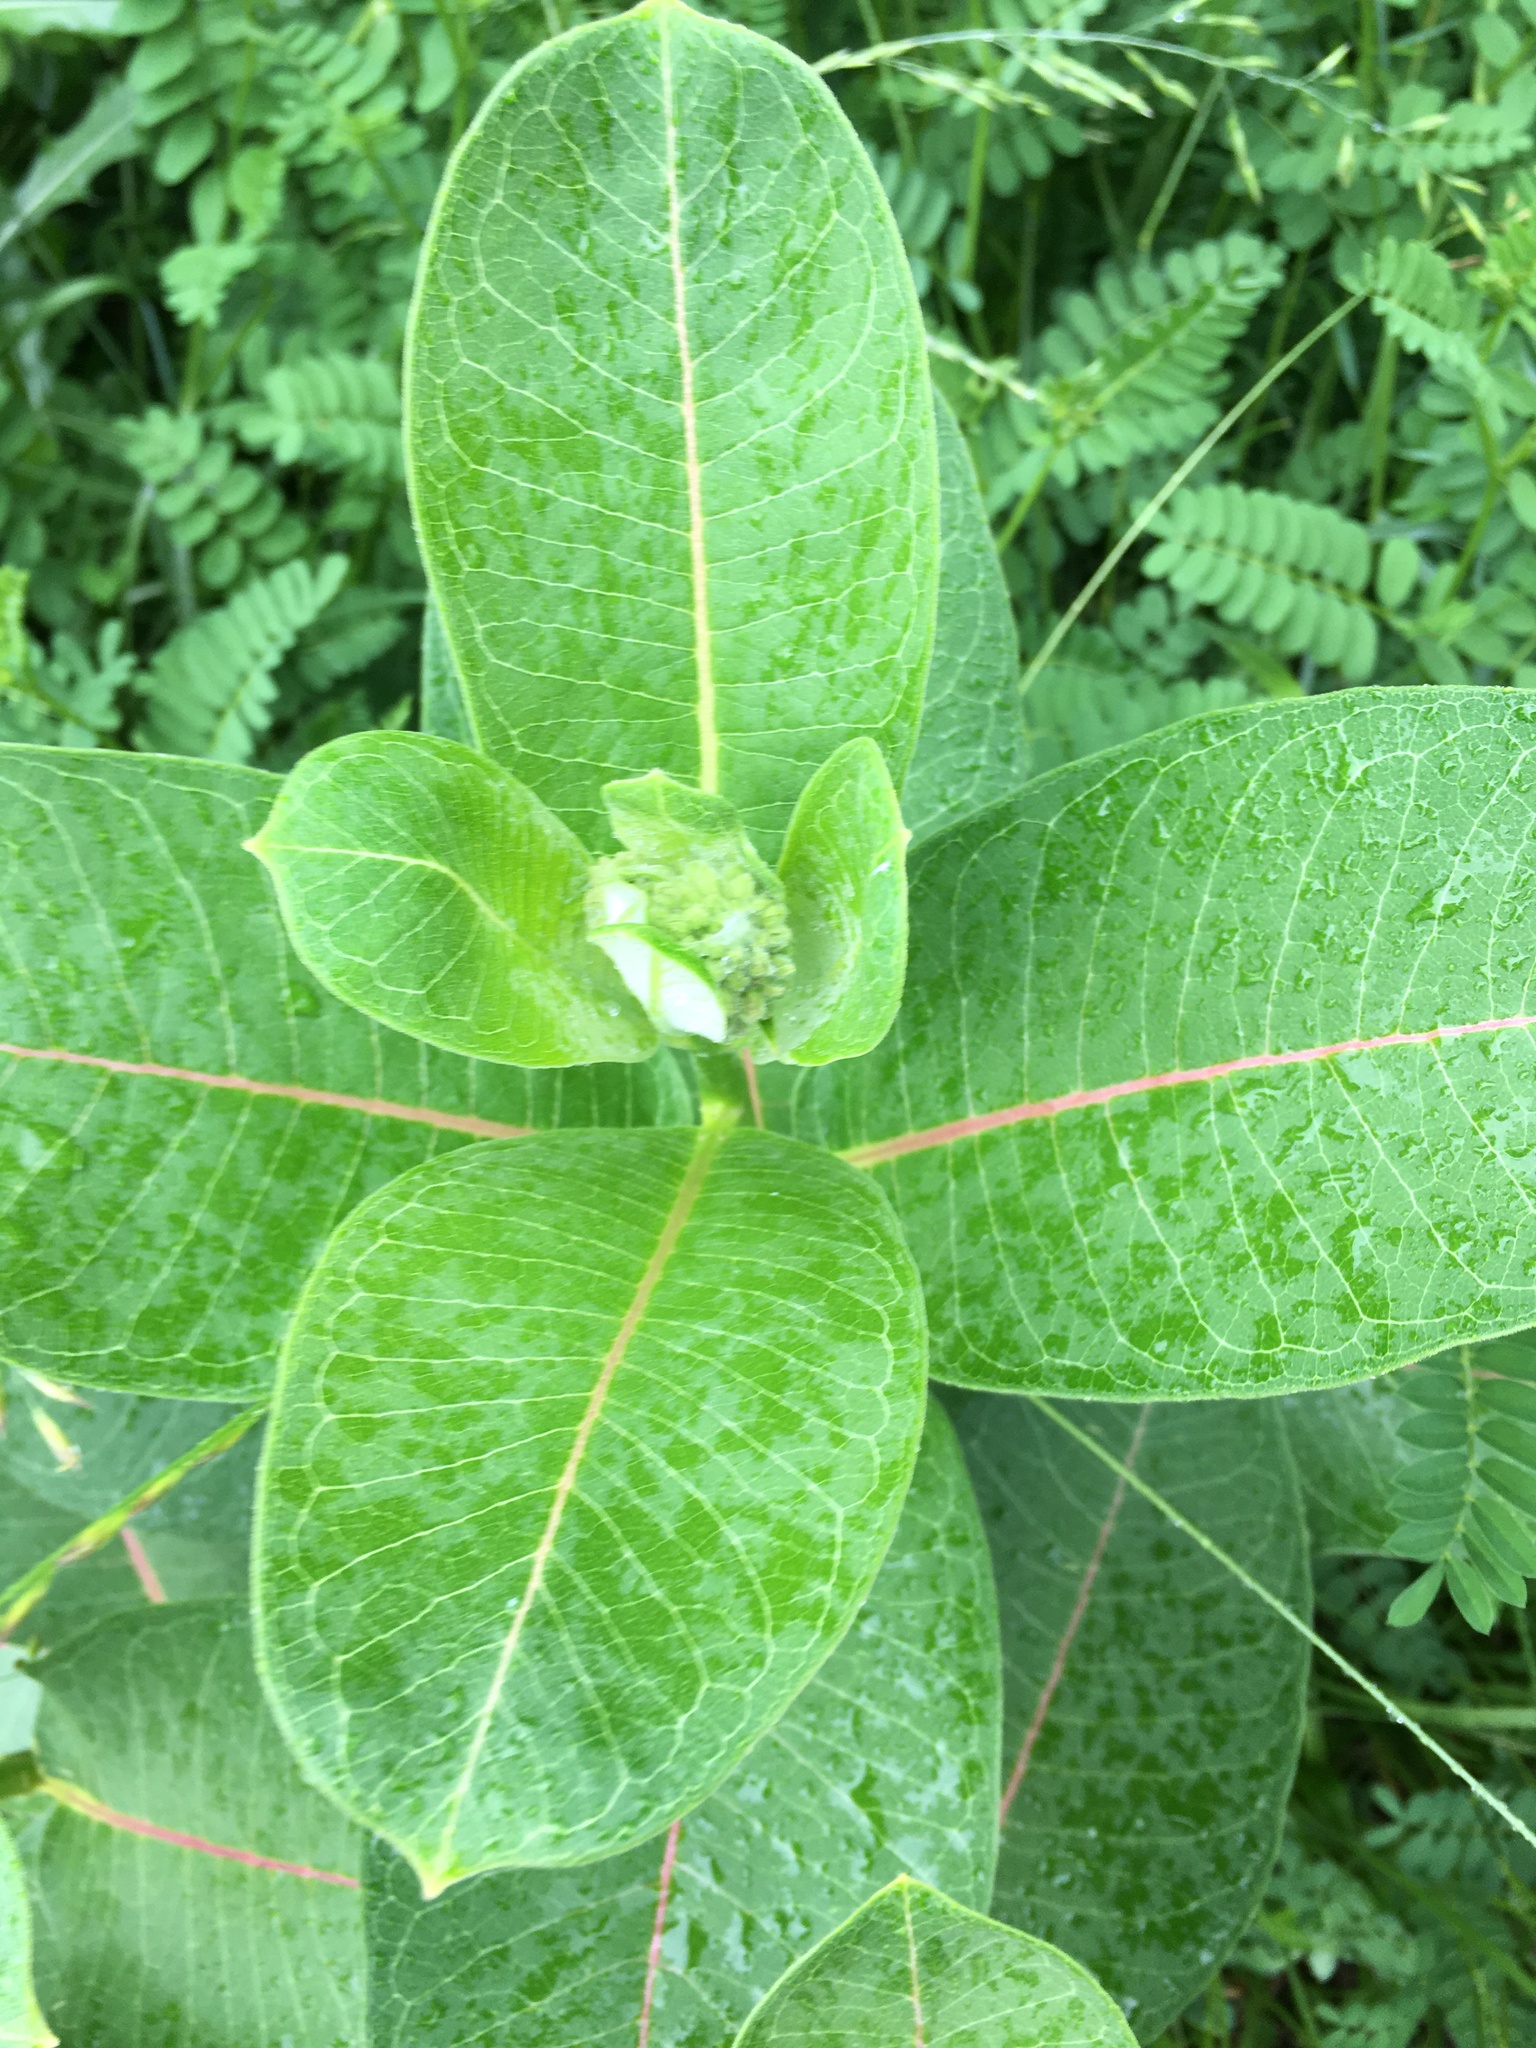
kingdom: Plantae
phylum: Tracheophyta
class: Magnoliopsida
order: Gentianales
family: Apocynaceae
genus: Asclepias
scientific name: Asclepias syriaca
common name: Common milkweed
